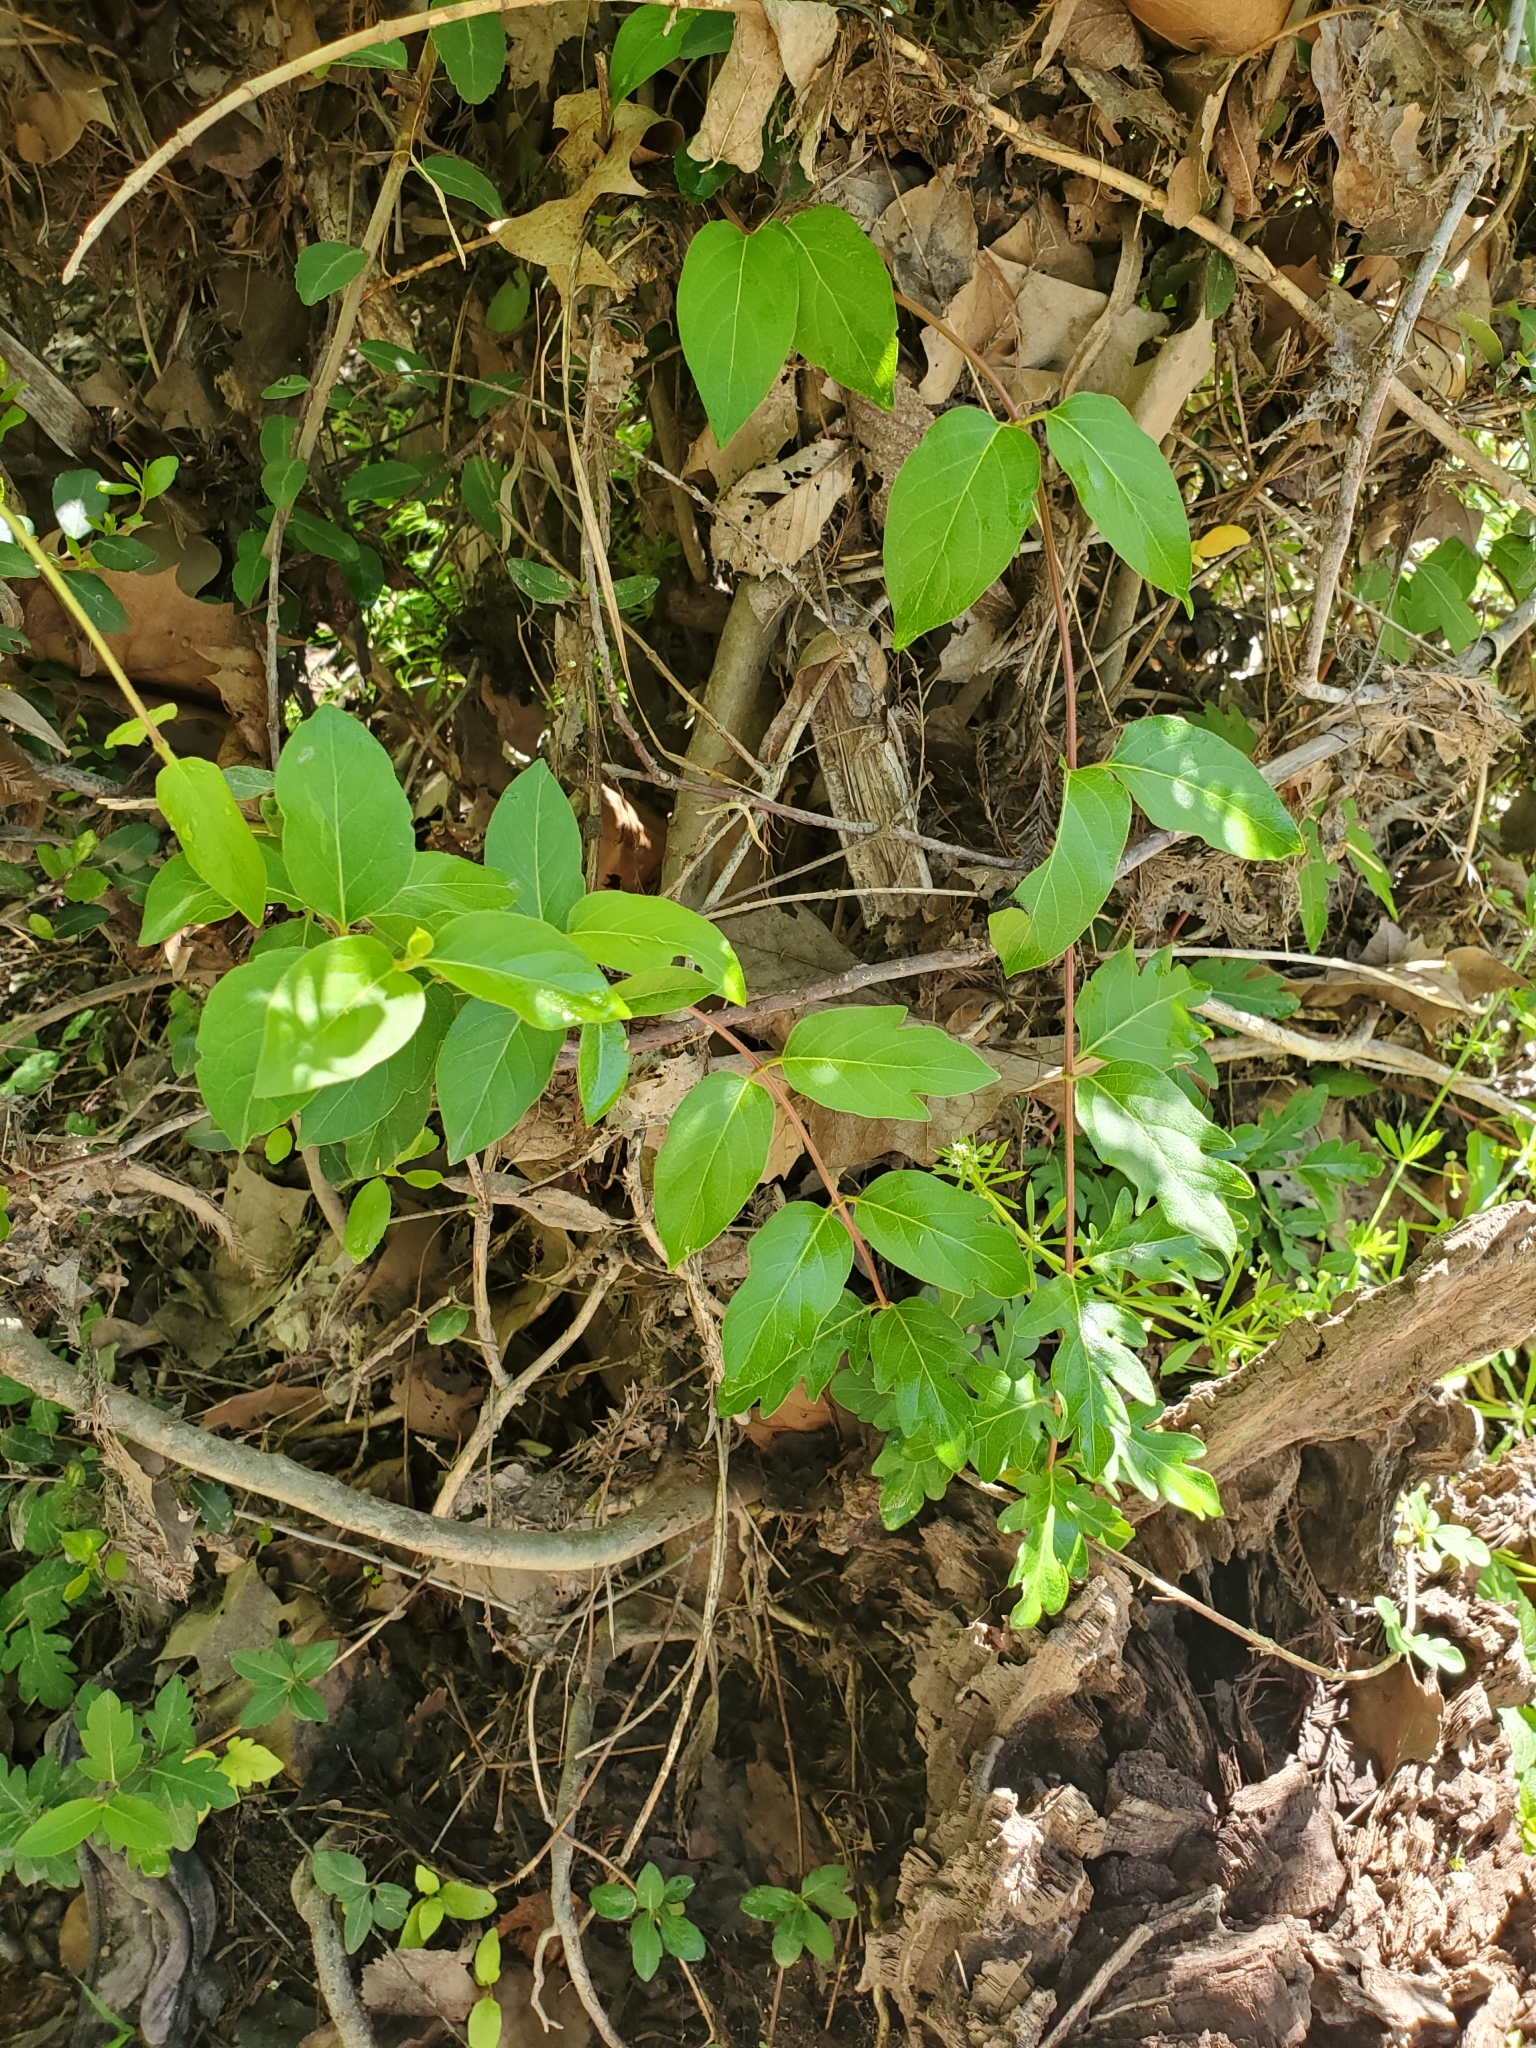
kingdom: Plantae
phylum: Tracheophyta
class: Magnoliopsida
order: Dipsacales
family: Caprifoliaceae
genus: Lonicera
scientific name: Lonicera japonica
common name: Japanese honeysuckle
